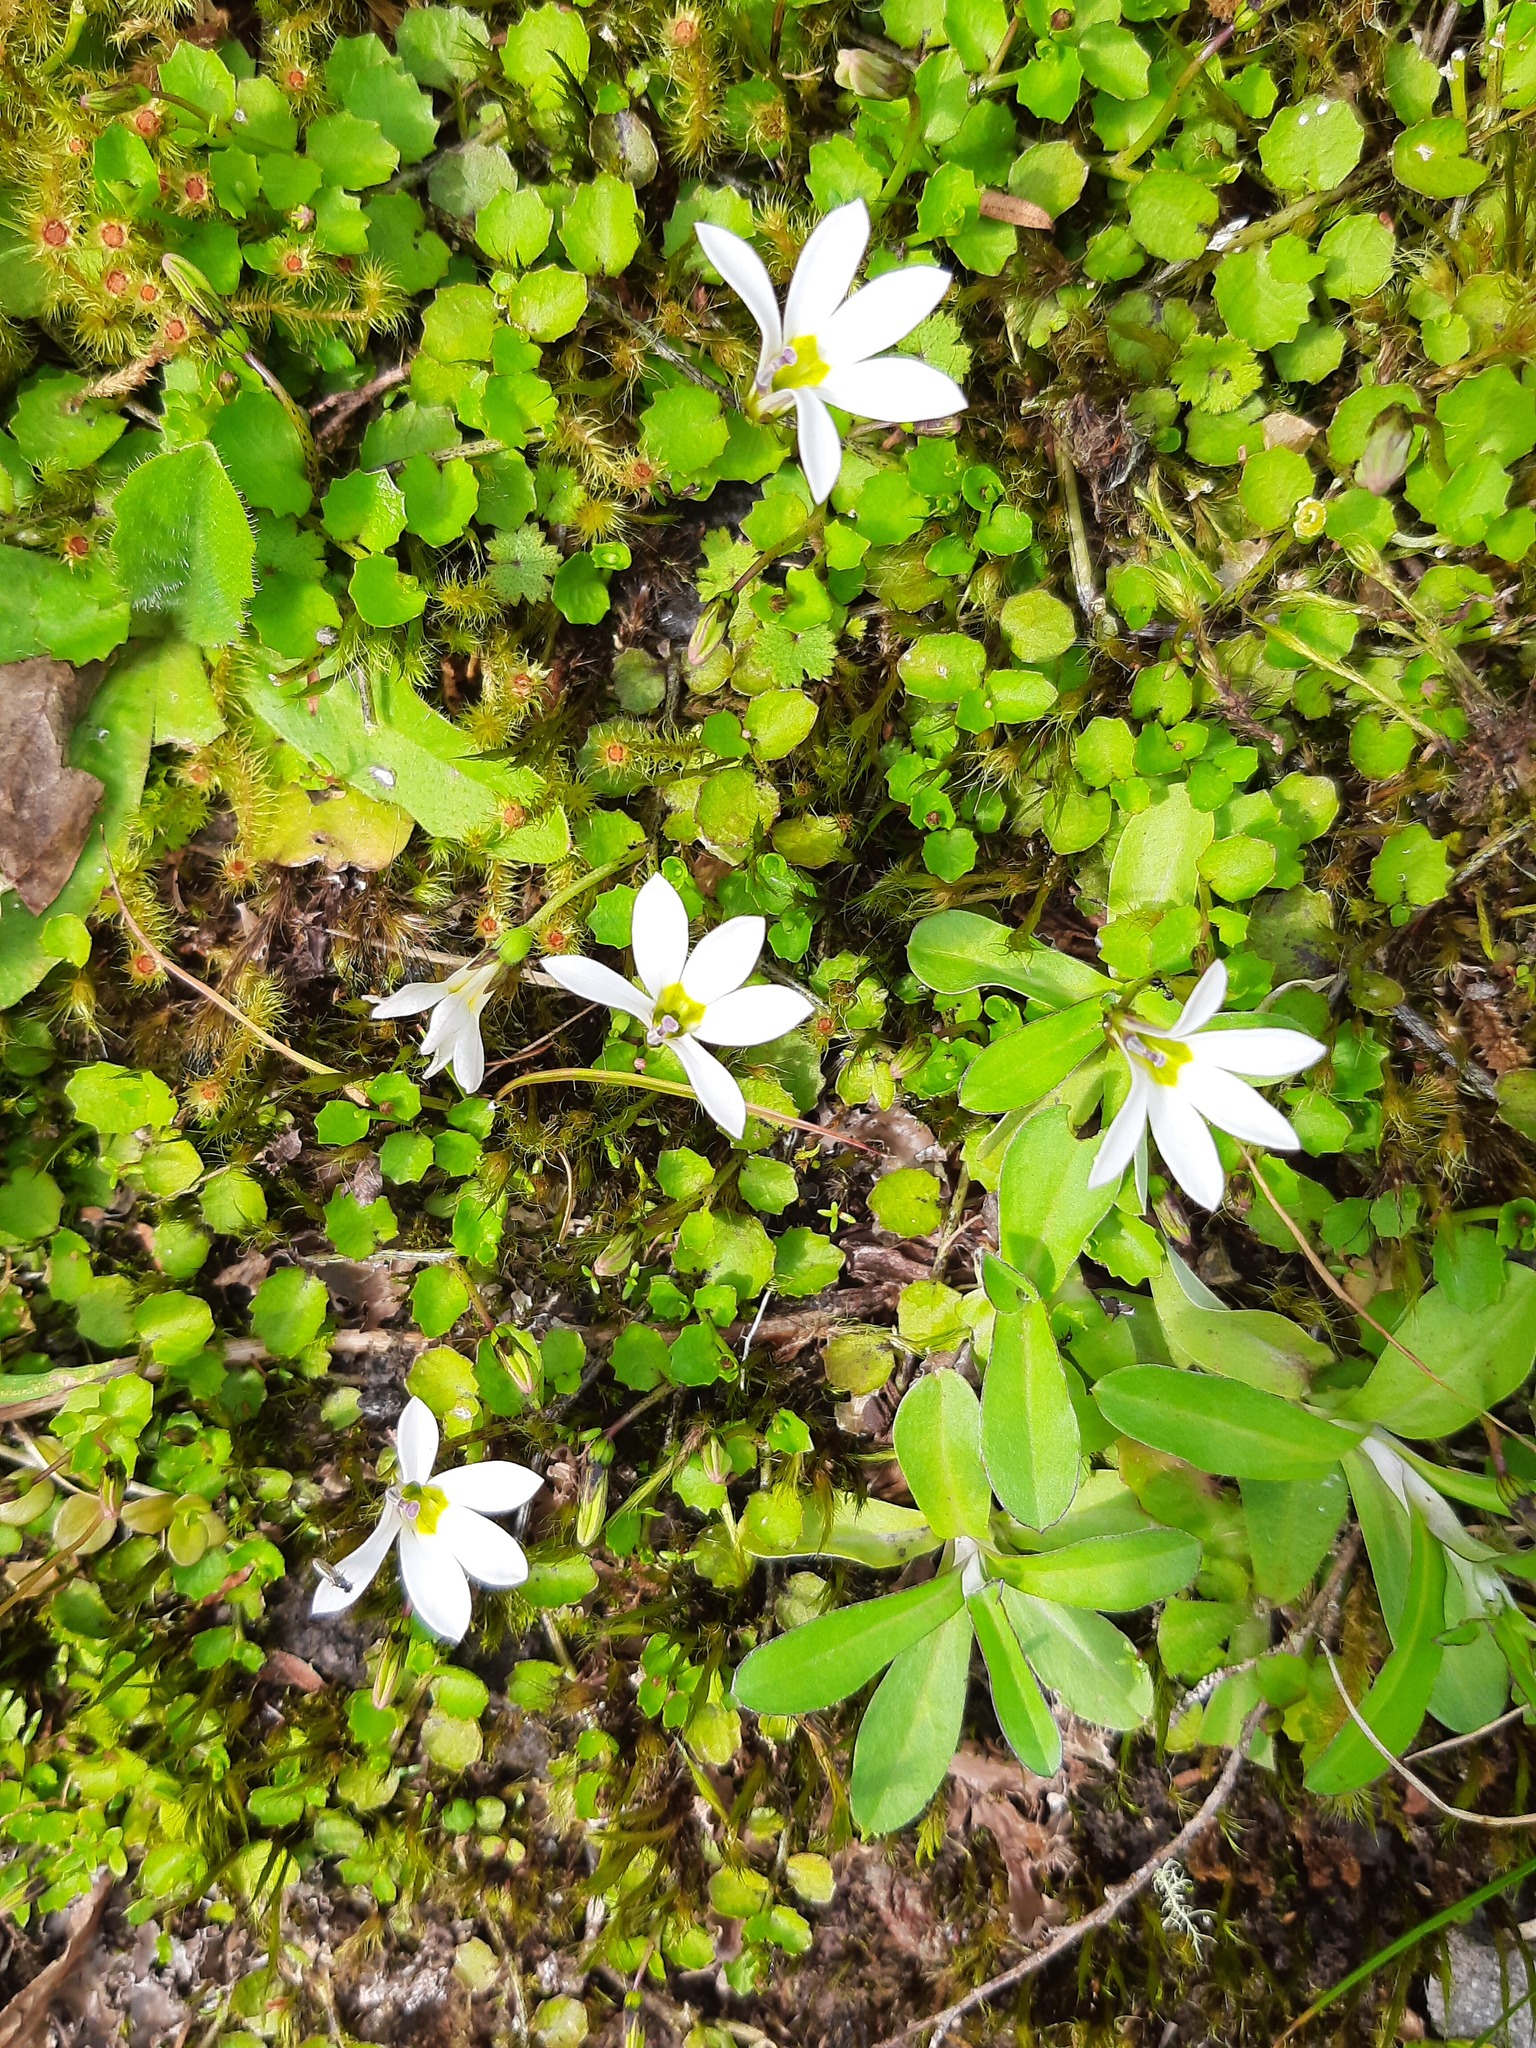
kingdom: Plantae
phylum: Tracheophyta
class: Magnoliopsida
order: Asterales
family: Campanulaceae
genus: Lobelia
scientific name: Lobelia angulata
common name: Lawn lobelia
